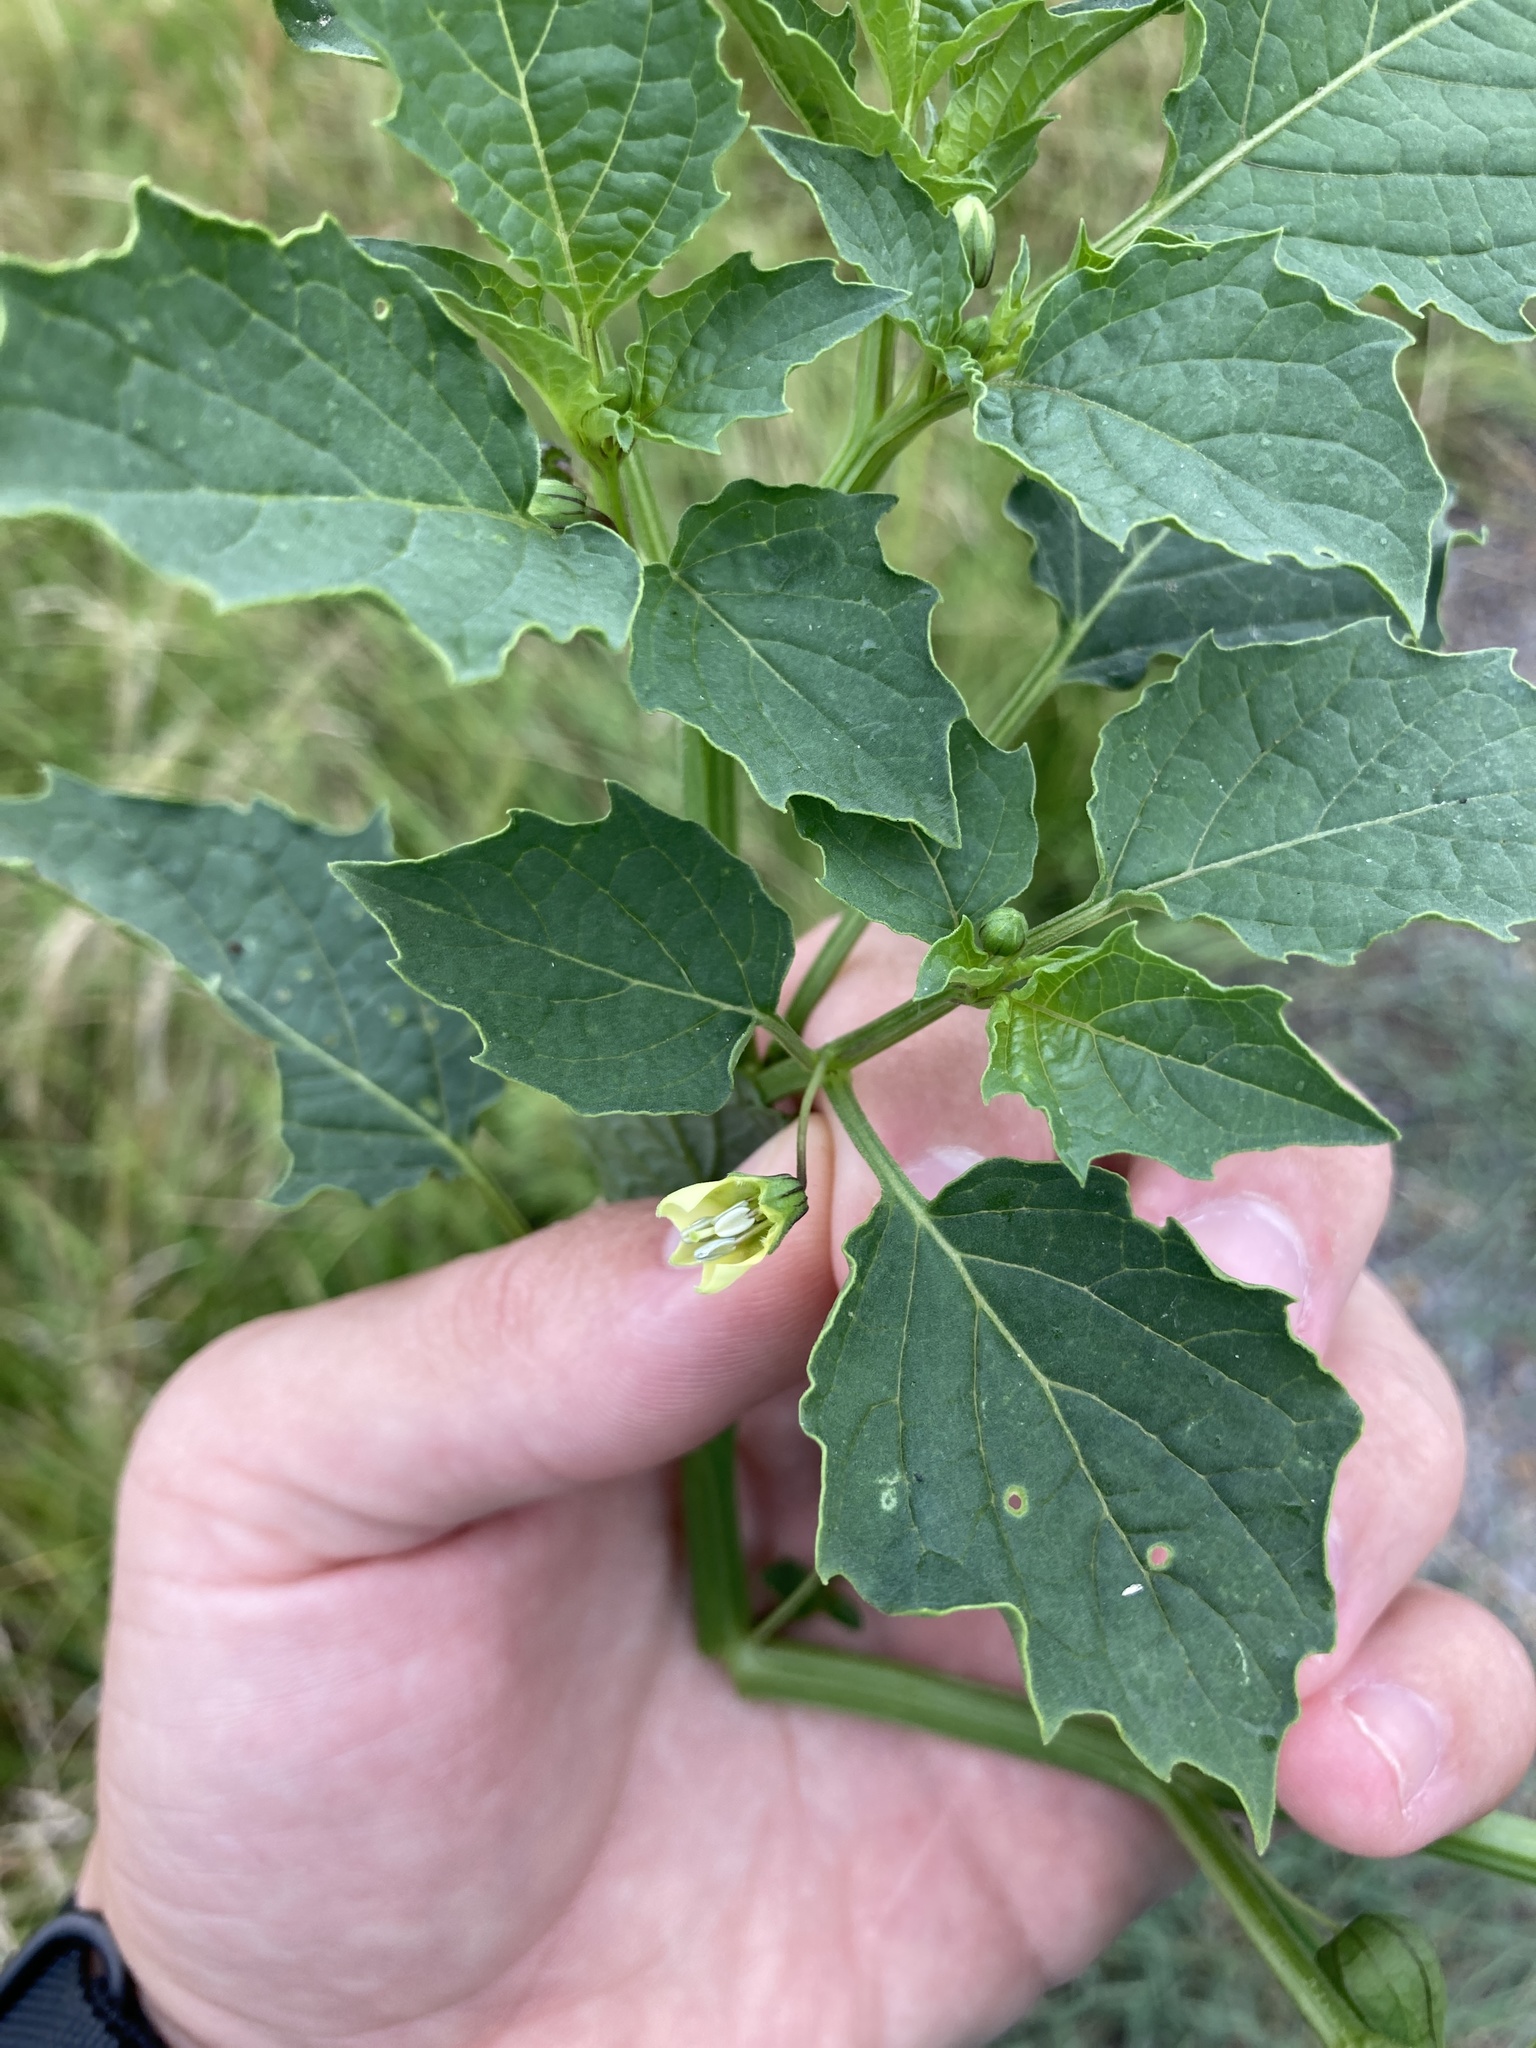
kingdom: Plantae
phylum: Tracheophyta
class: Magnoliopsida
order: Solanales
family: Solanaceae
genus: Physalis
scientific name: Physalis angulata
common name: Angular winter-cherry
